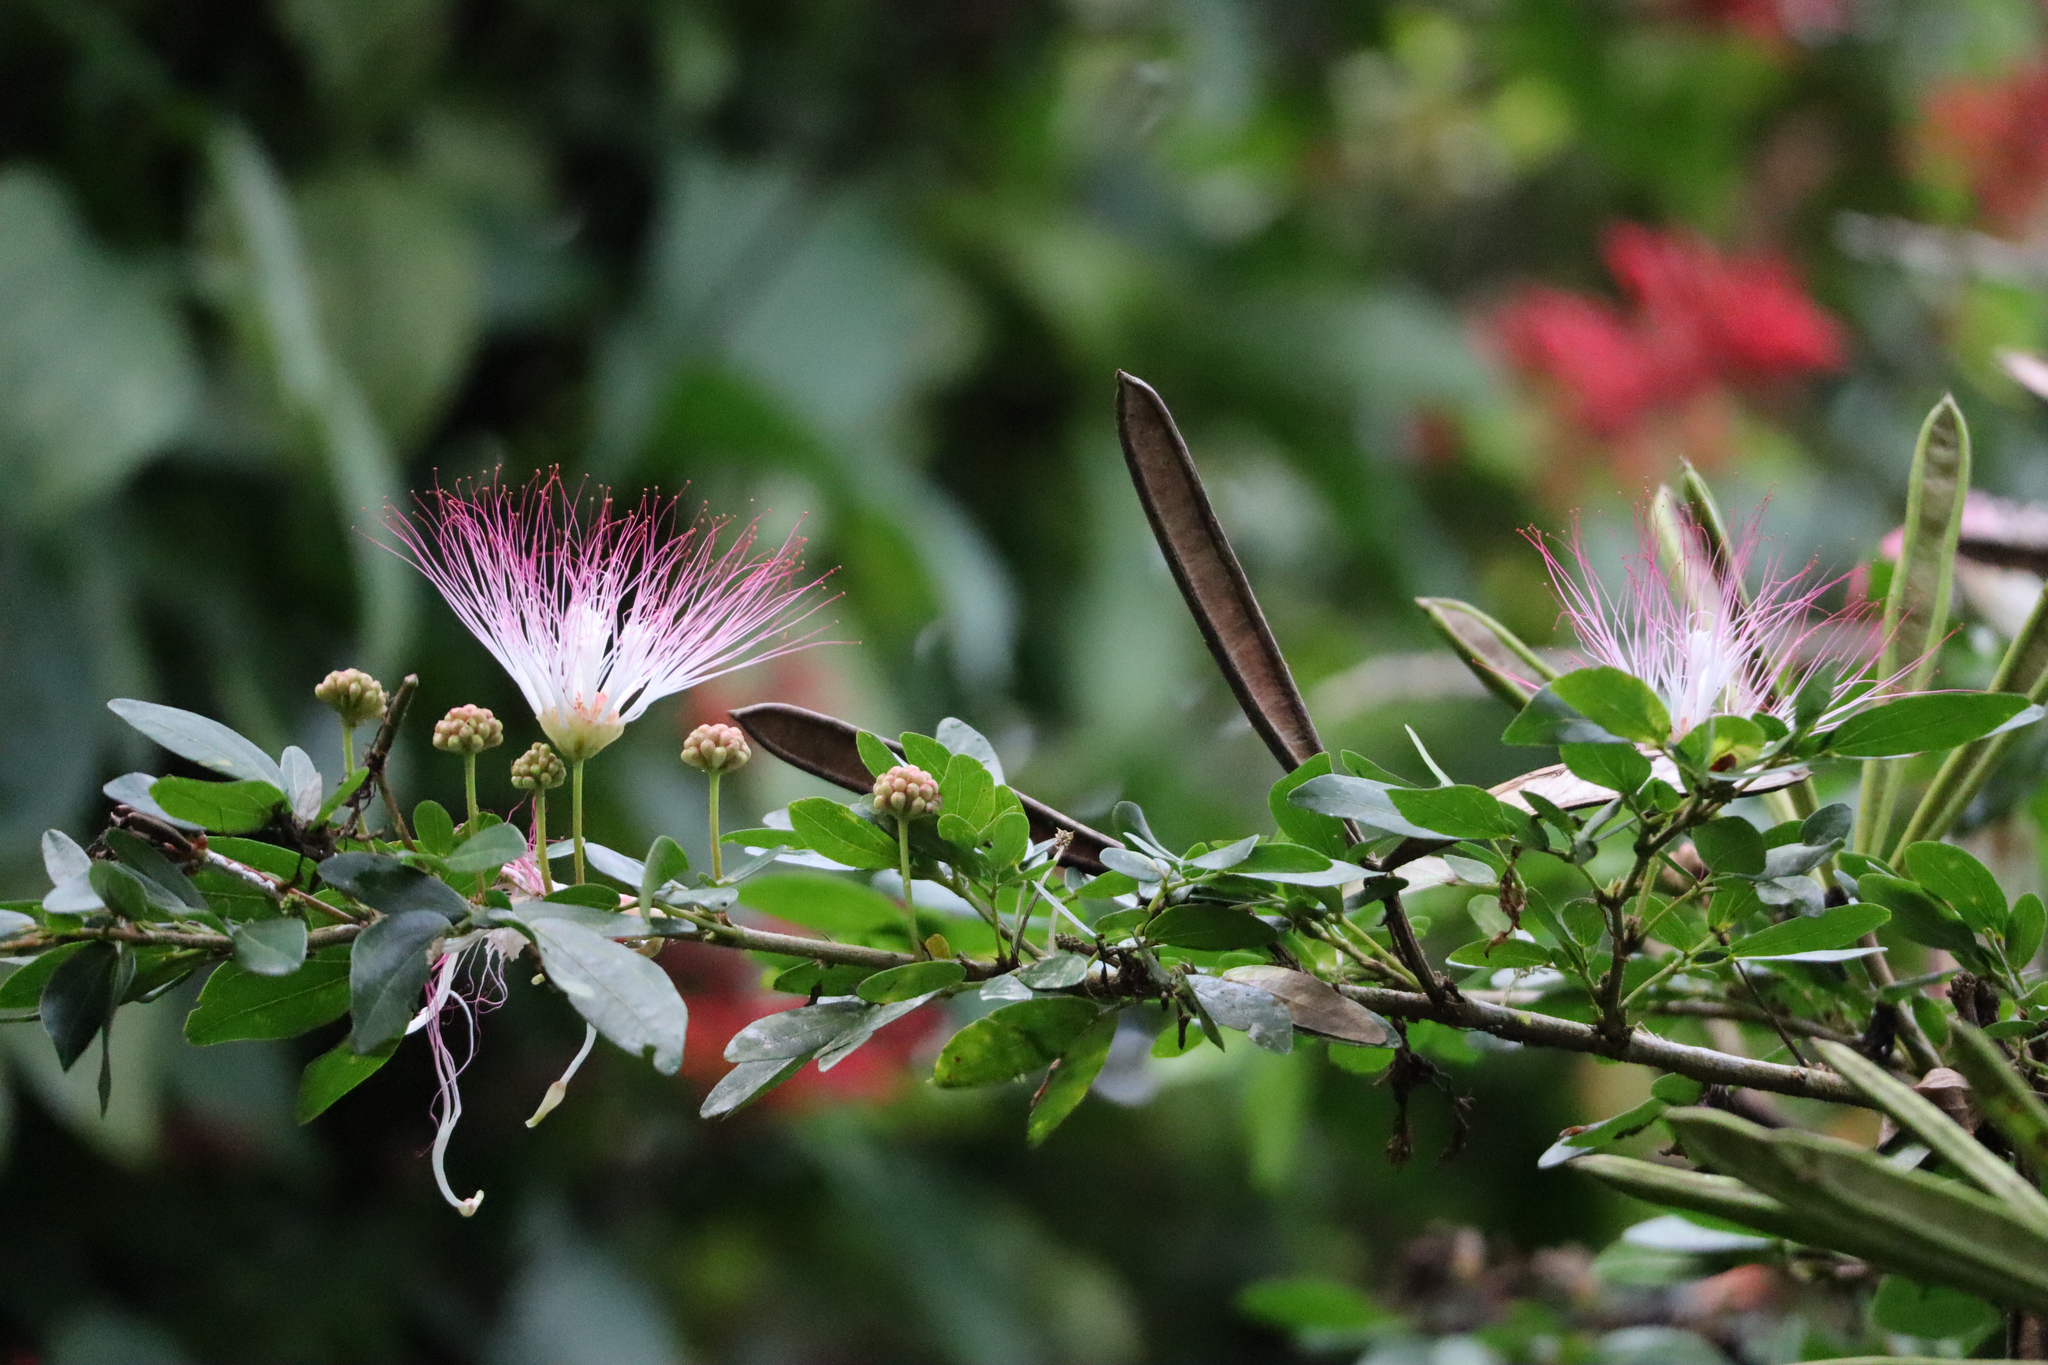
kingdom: Plantae
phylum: Tracheophyta
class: Magnoliopsida
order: Fabales
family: Fabaceae
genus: Calliandra
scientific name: Calliandra angustifolia
